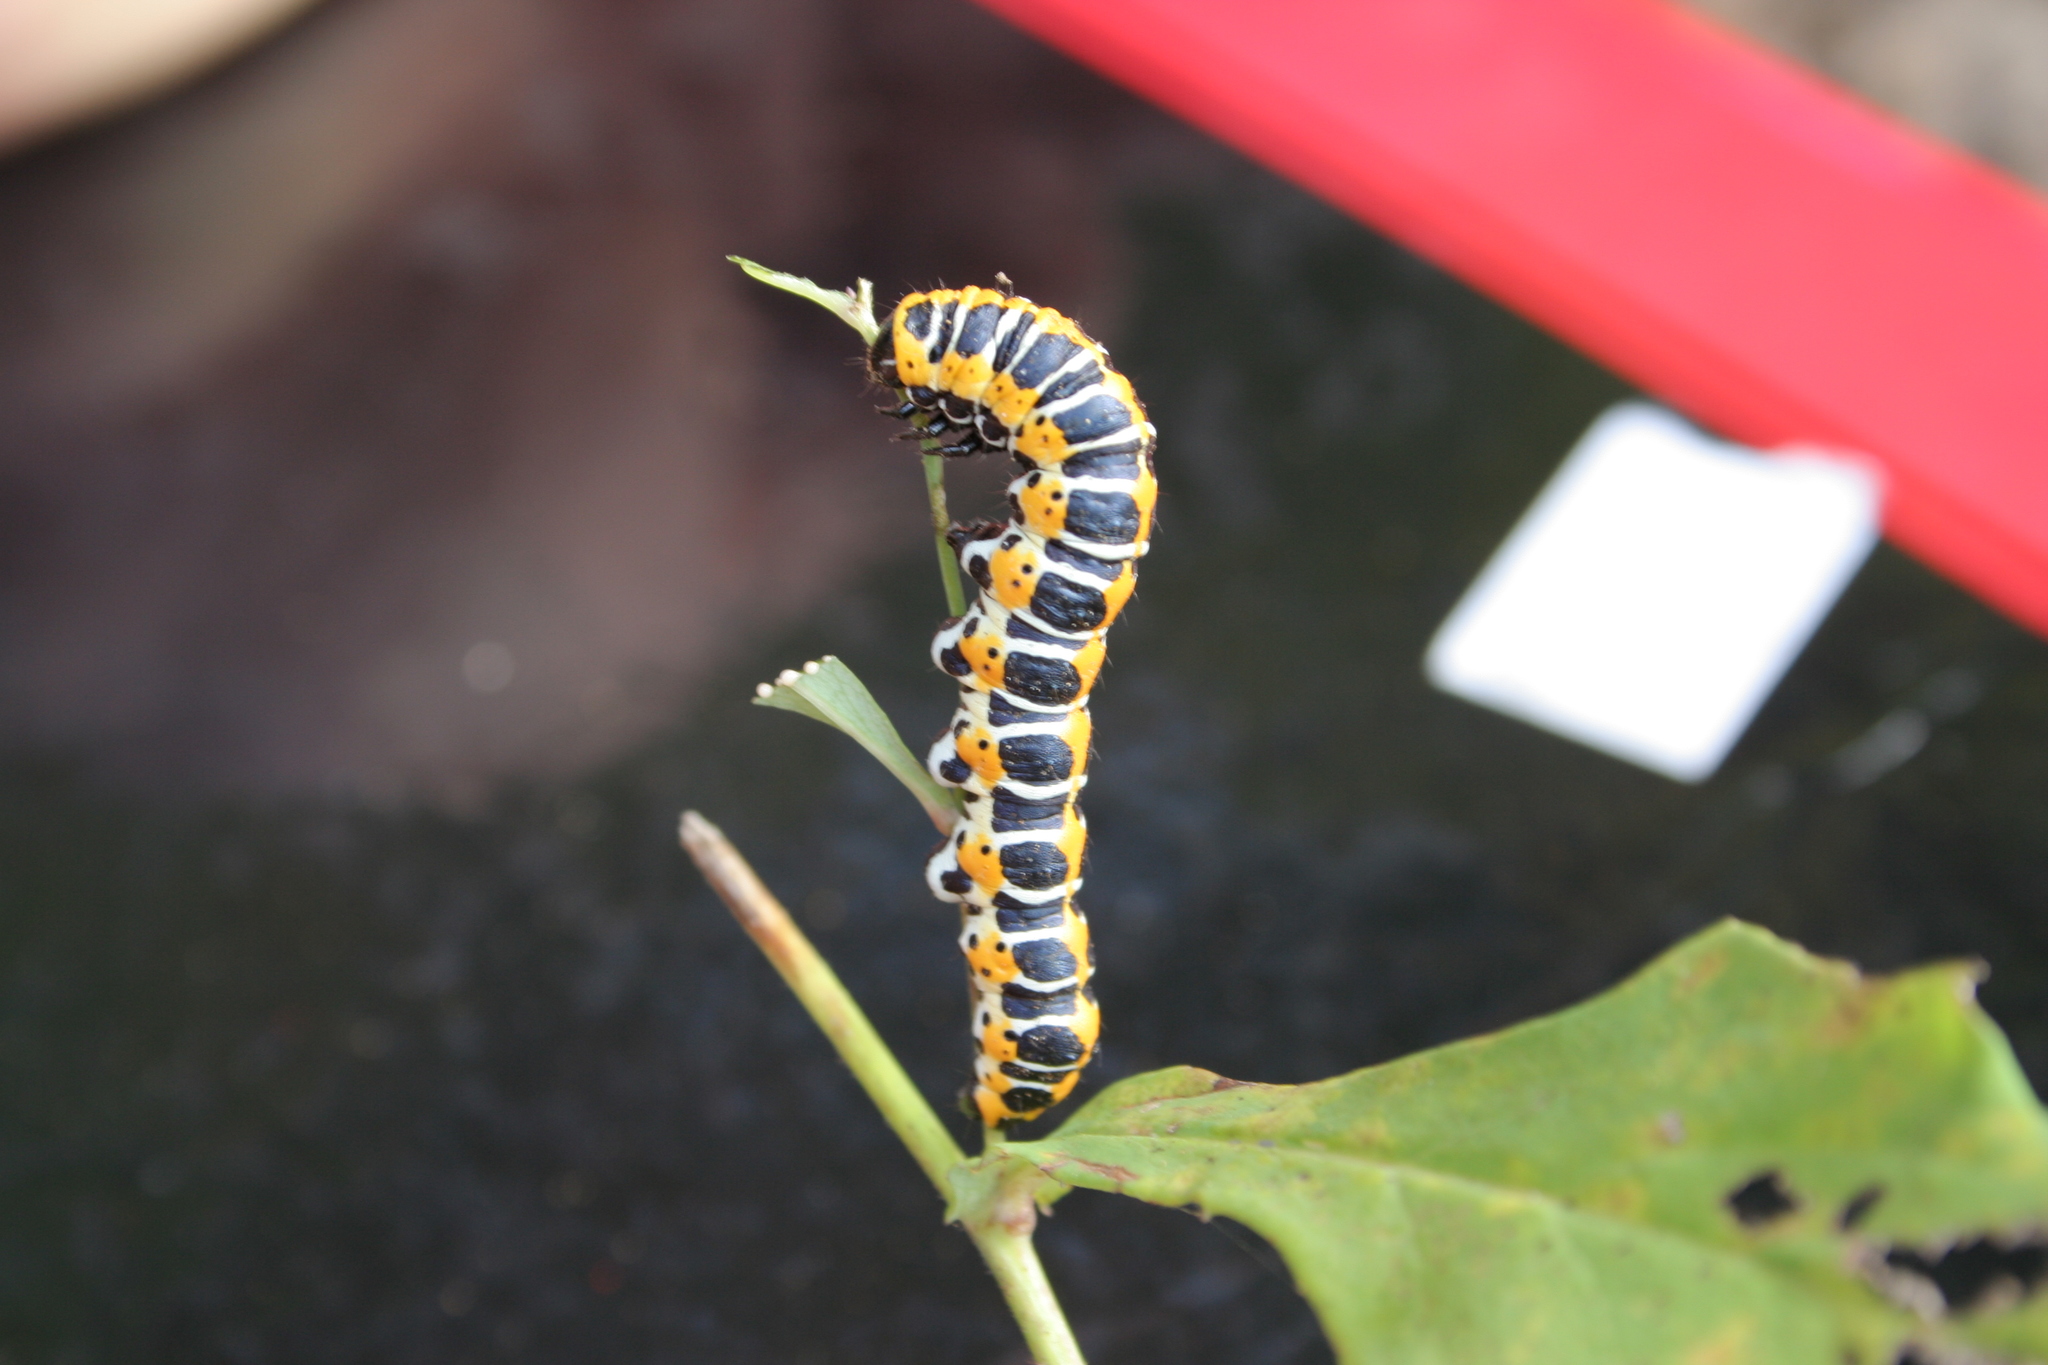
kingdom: Animalia
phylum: Arthropoda
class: Insecta
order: Lepidoptera
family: Noctuidae
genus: Cucullia
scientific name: Cucullia lactucae
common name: Lettuce shark
